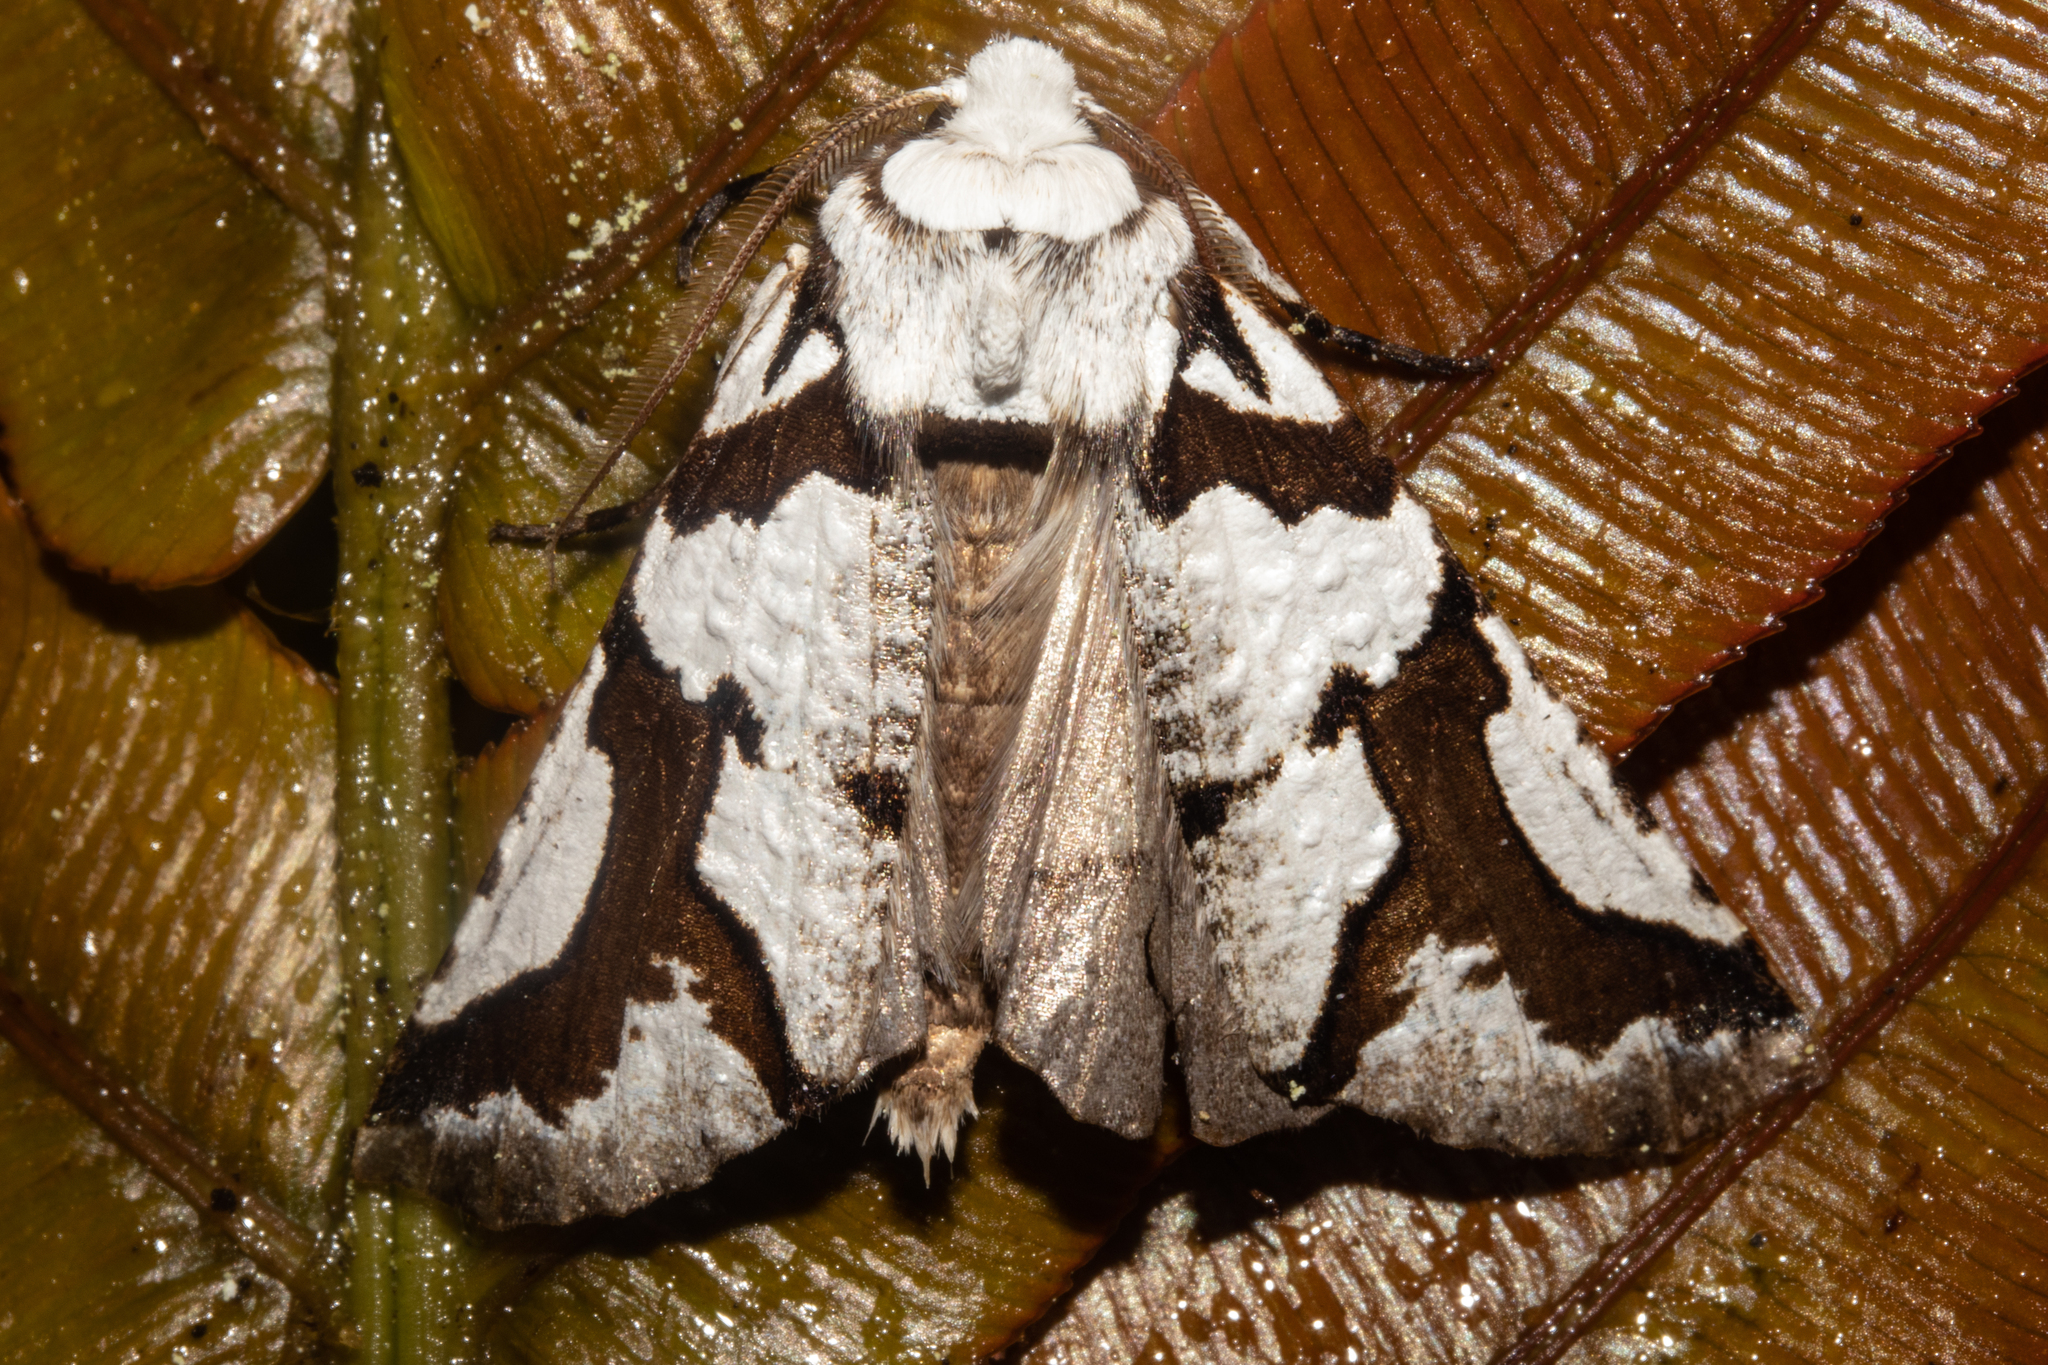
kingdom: Animalia
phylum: Arthropoda
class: Insecta
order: Lepidoptera
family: Geometridae
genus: Declana
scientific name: Declana
